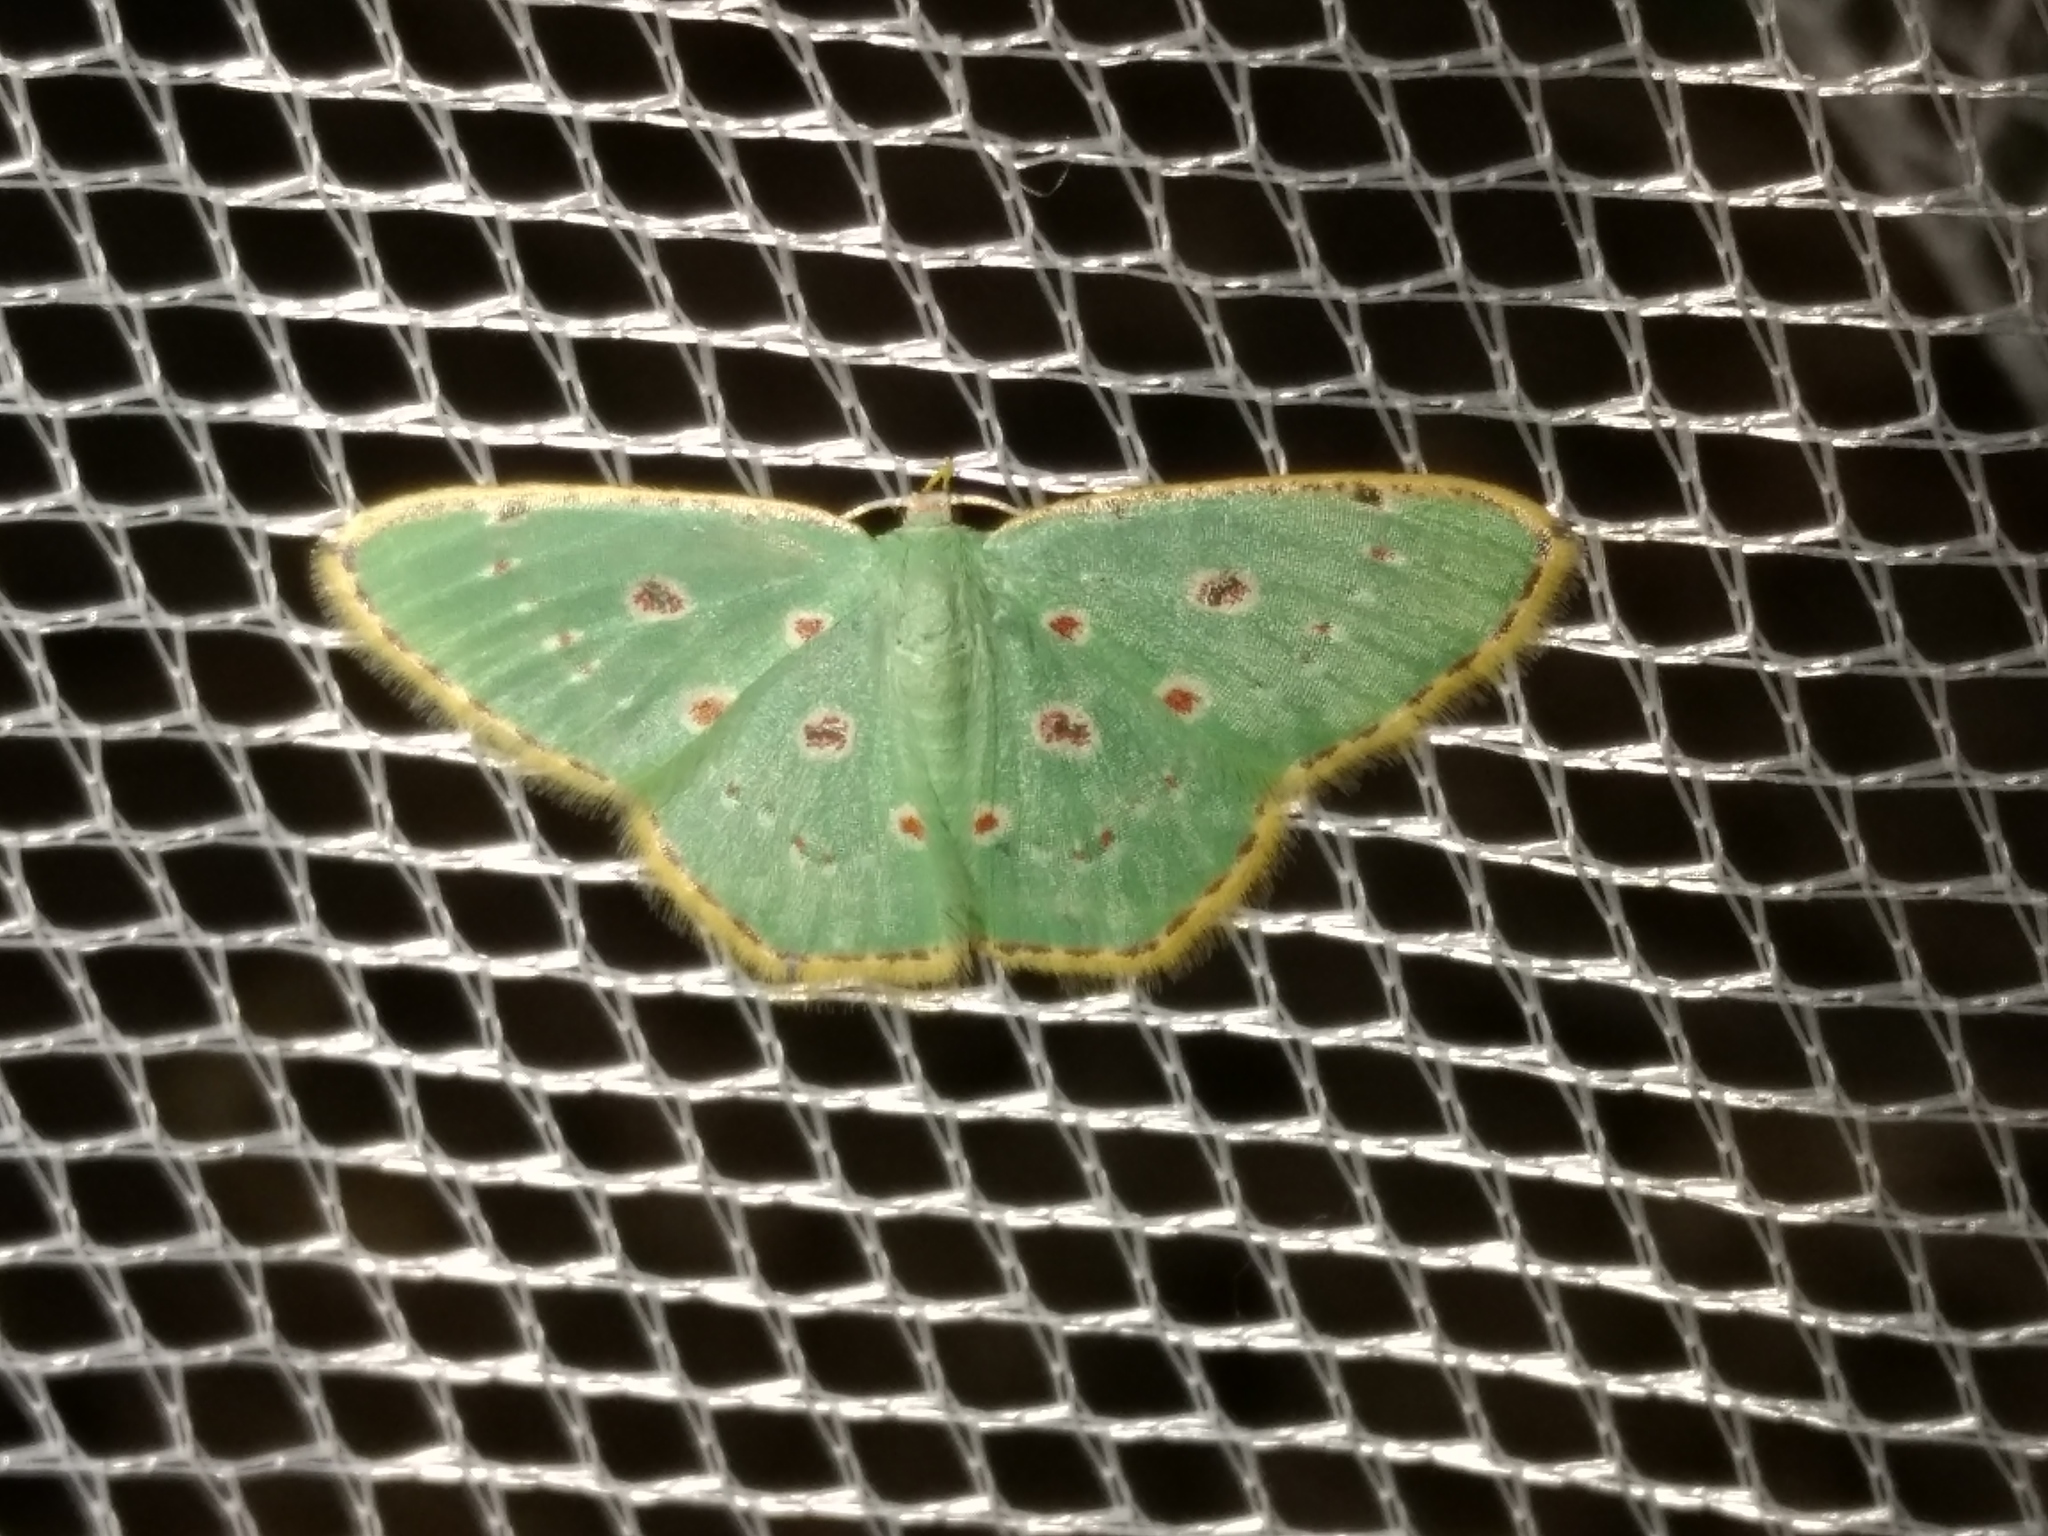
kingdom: Animalia
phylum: Arthropoda
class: Insecta
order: Lepidoptera
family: Geometridae
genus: Comostola
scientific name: Comostola laesaria
